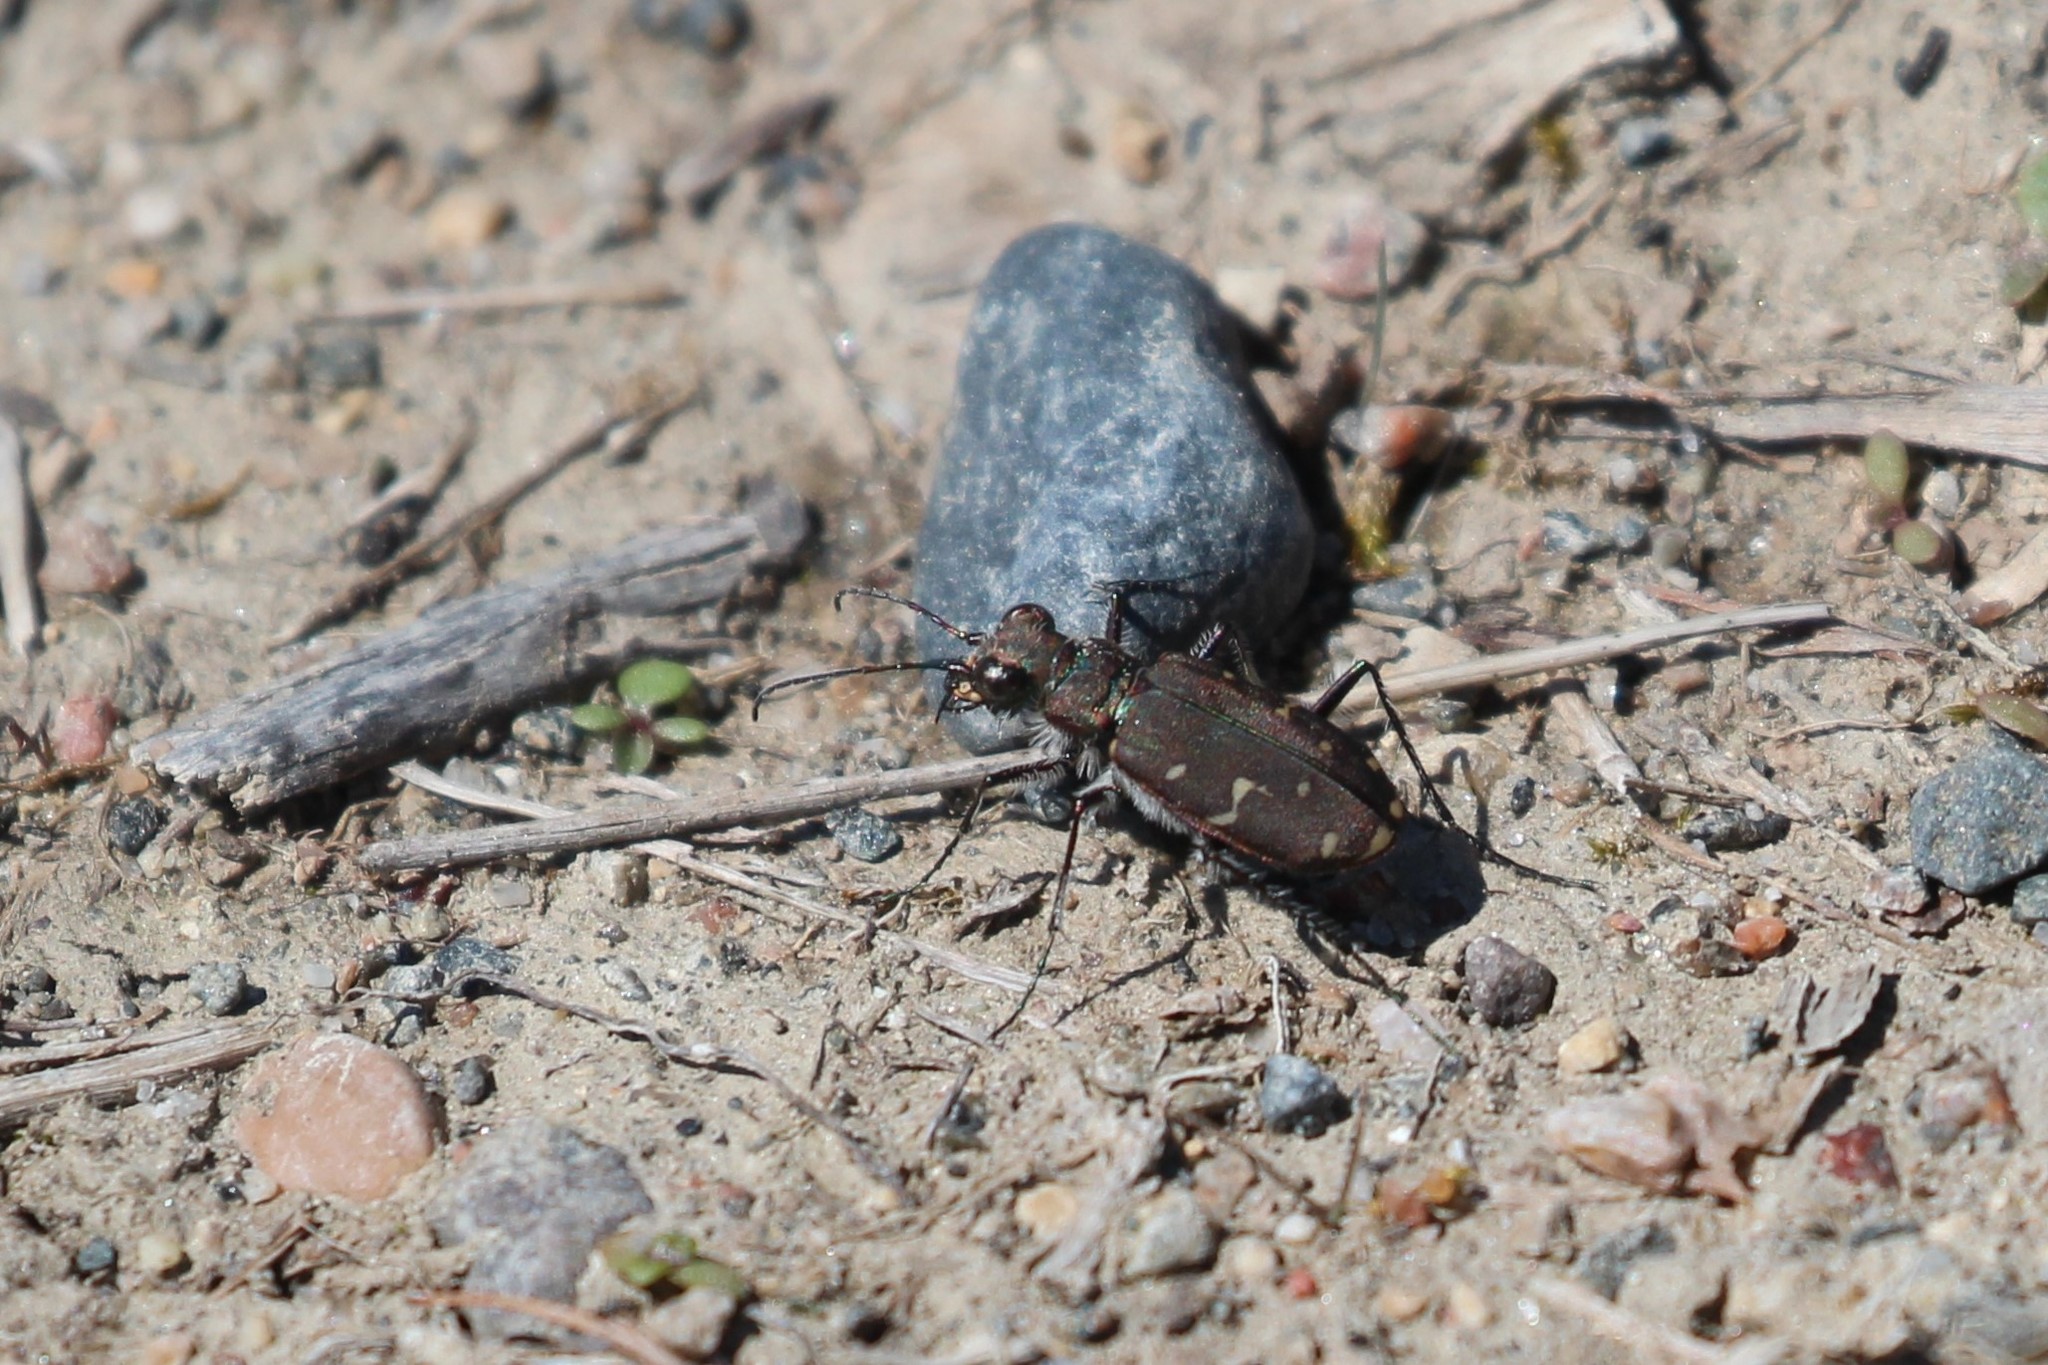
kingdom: Animalia
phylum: Arthropoda
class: Insecta
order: Coleoptera
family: Carabidae
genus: Cicindela
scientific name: Cicindela duodecimguttata
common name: Twelve-spotted tiger beetle
